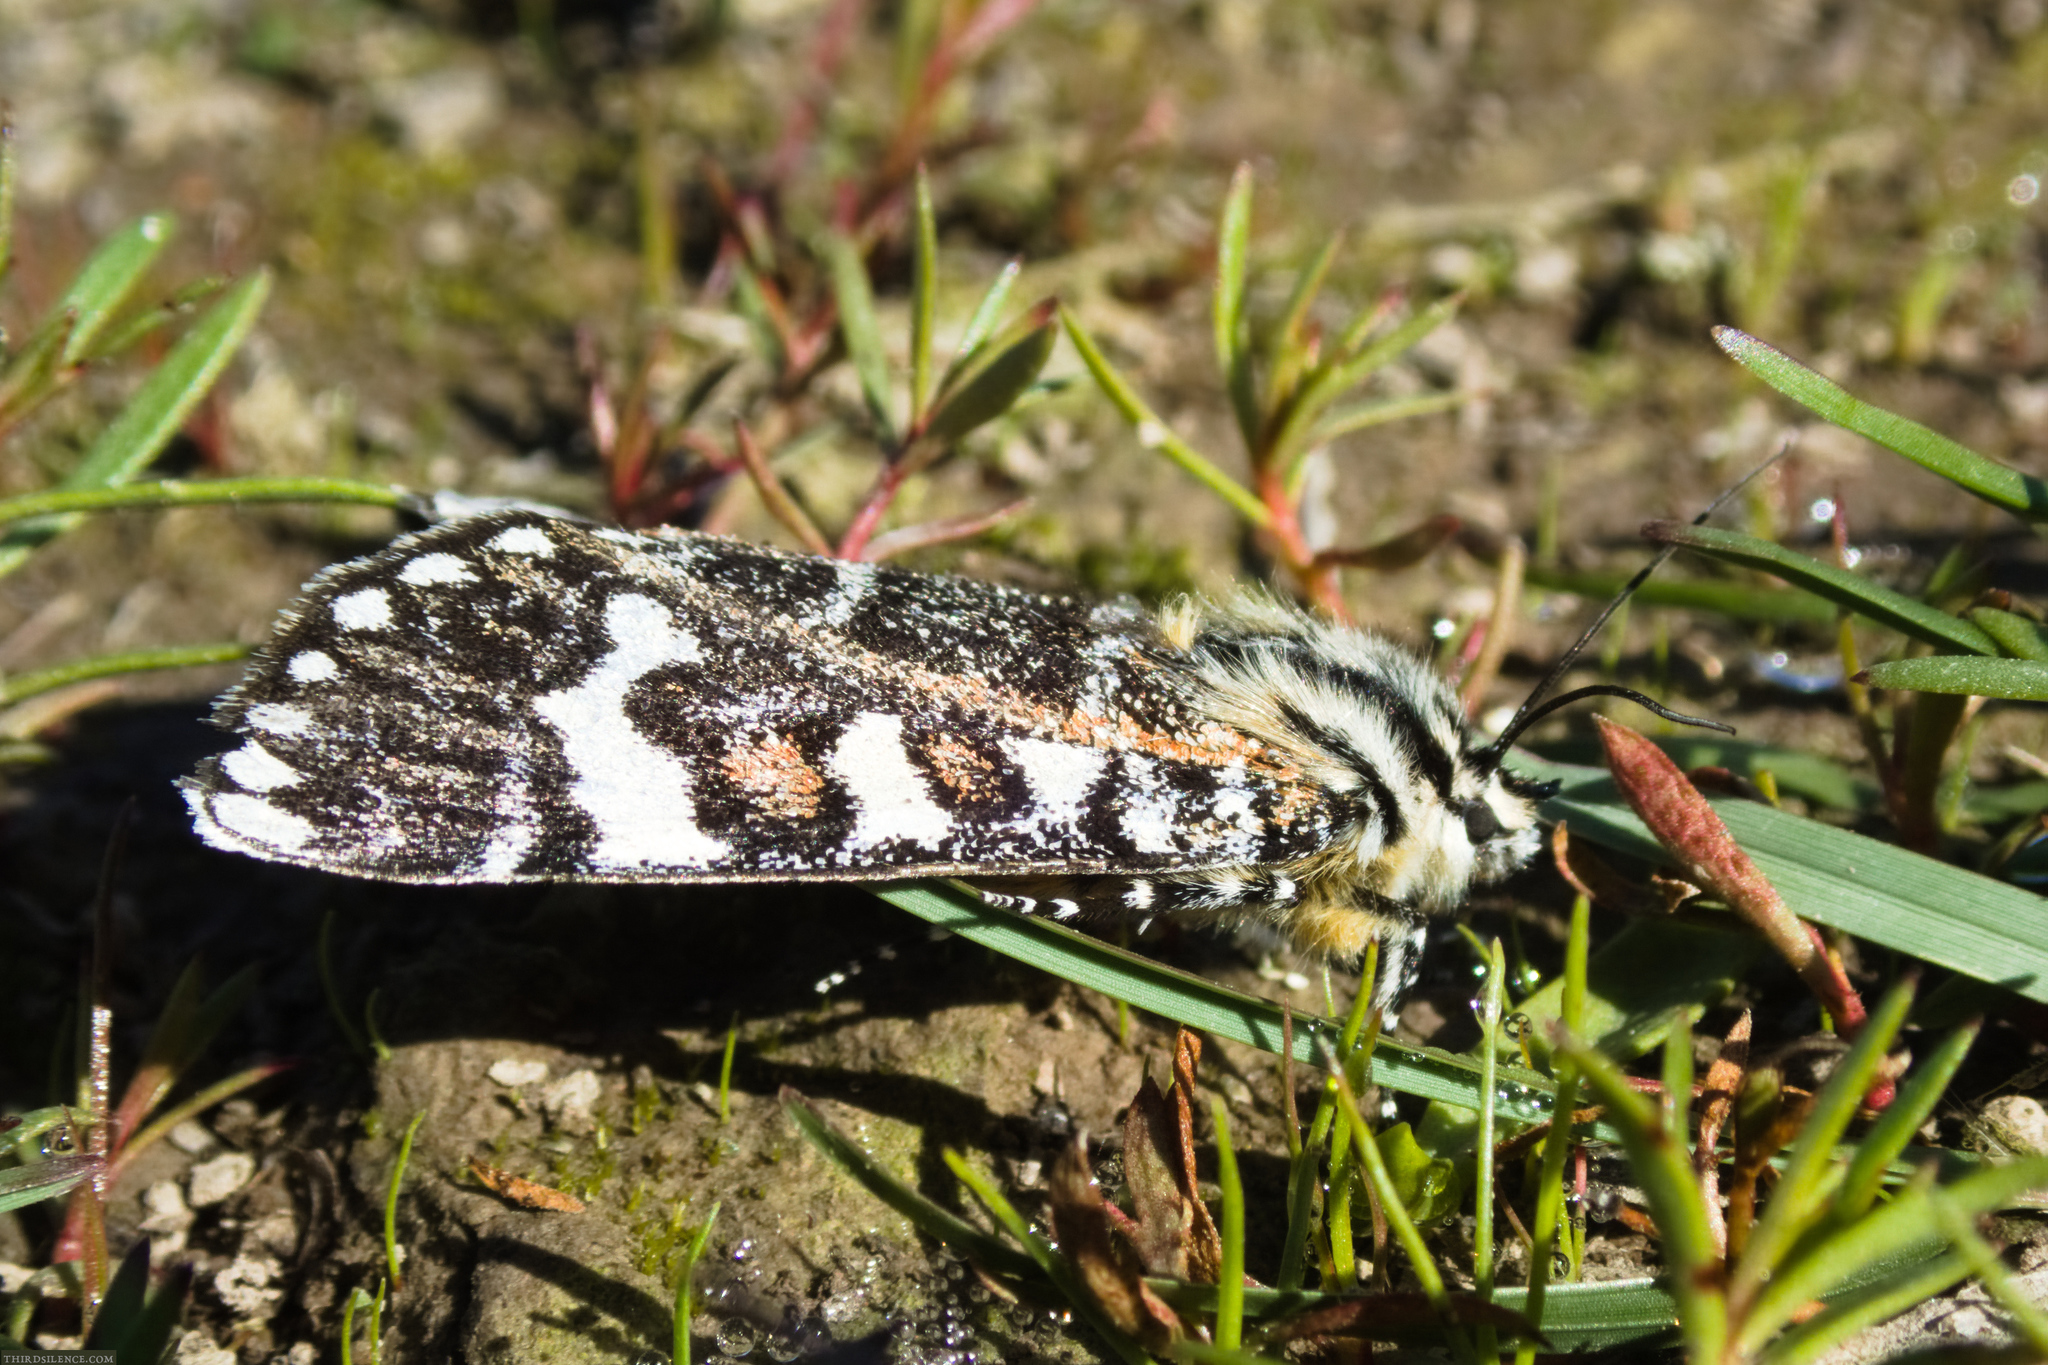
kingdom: Animalia
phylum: Arthropoda
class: Insecta
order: Lepidoptera
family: Noctuidae
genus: Apina
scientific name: Apina callisto
